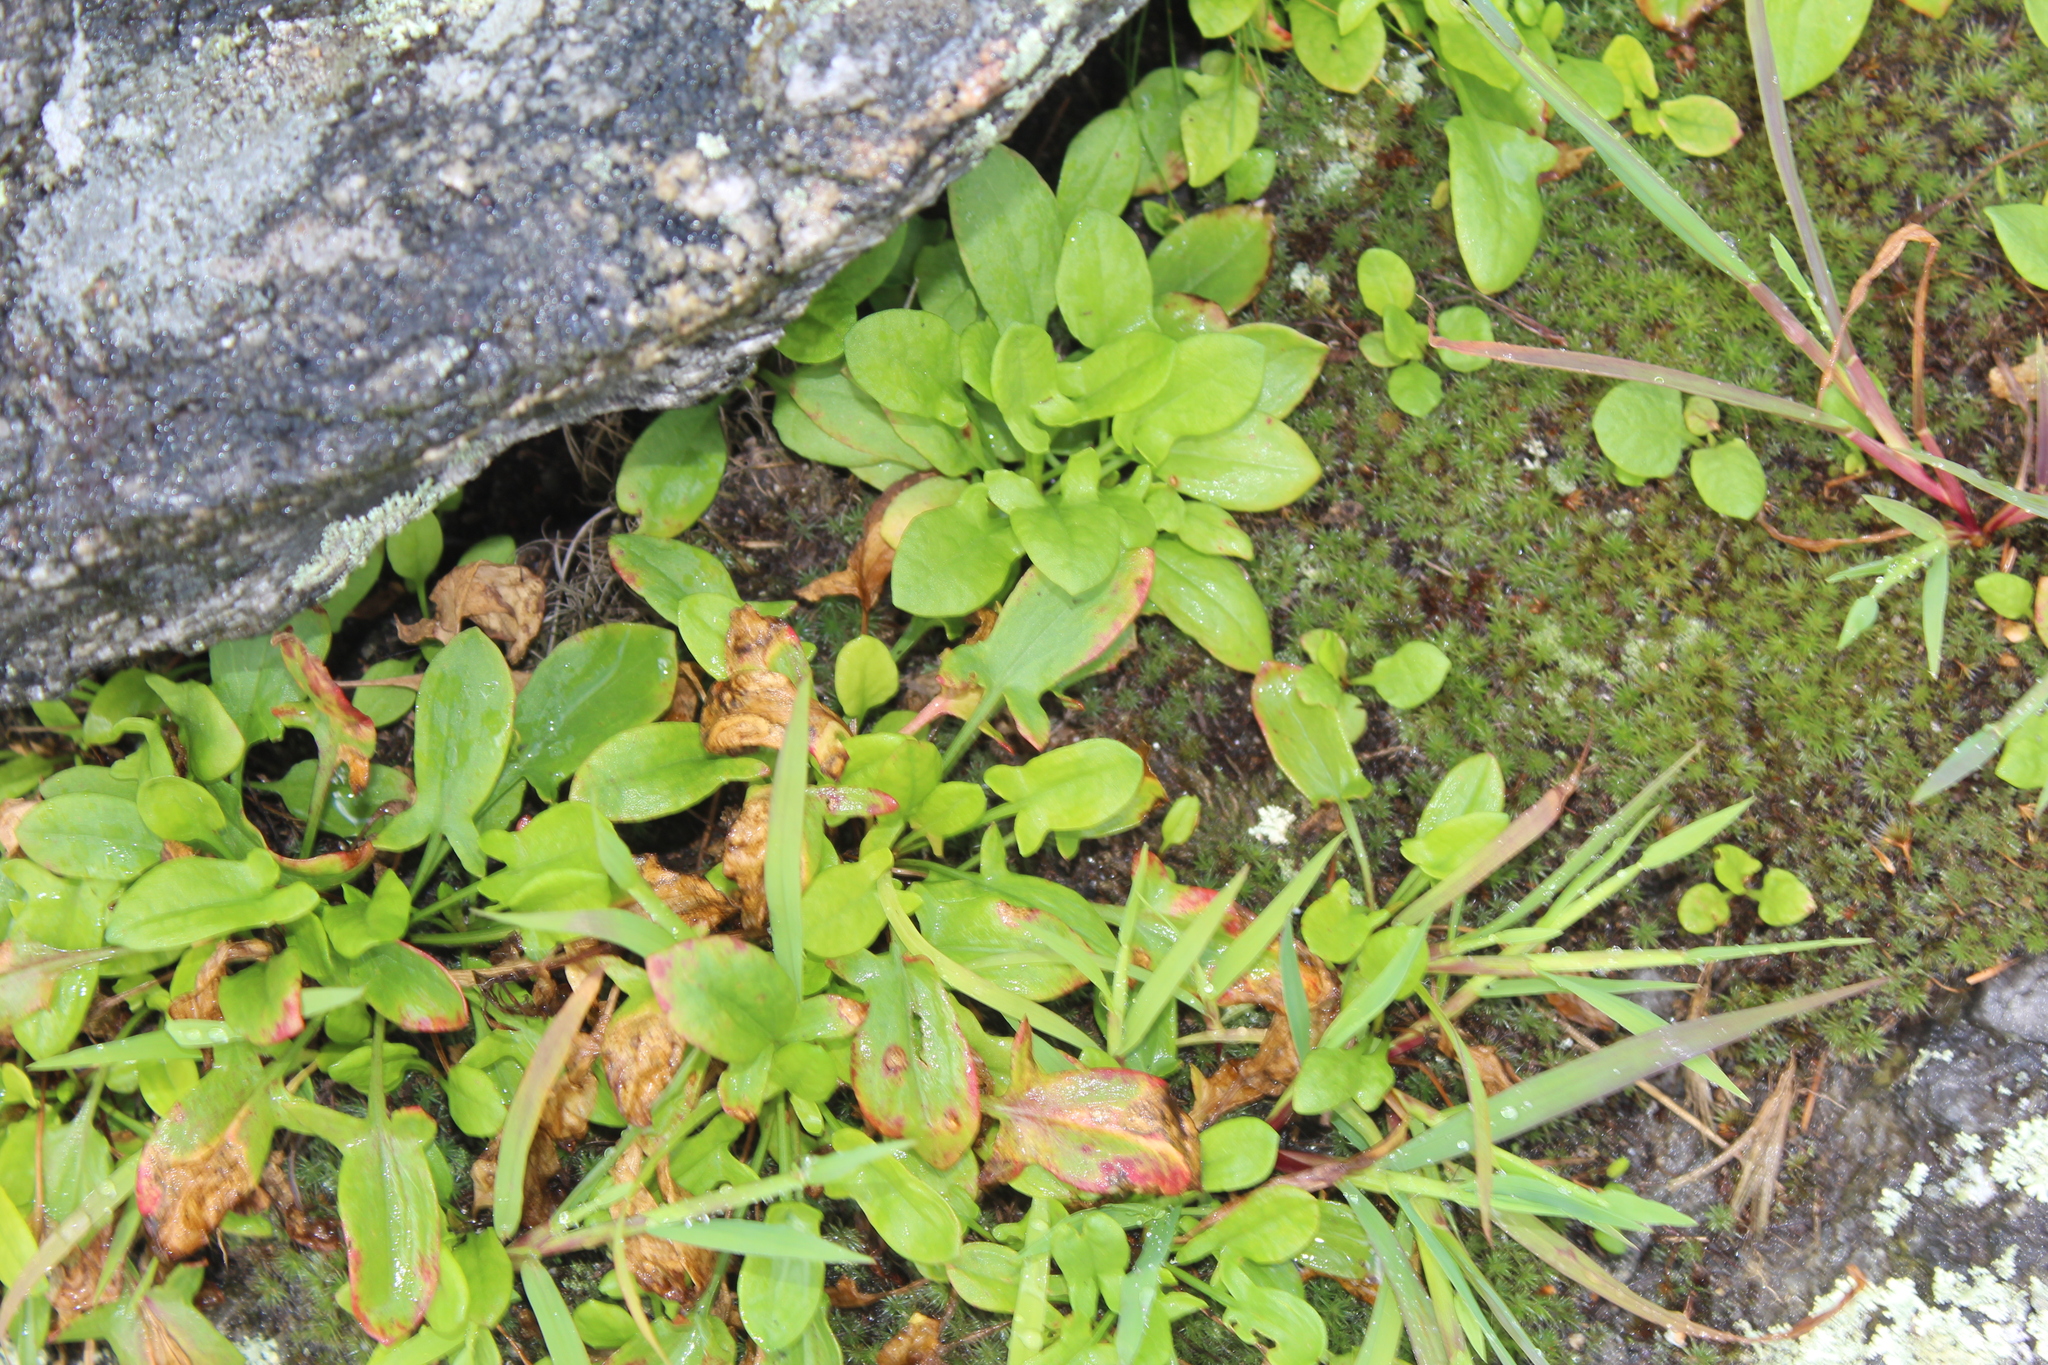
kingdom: Plantae
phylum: Tracheophyta
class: Magnoliopsida
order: Caryophyllales
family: Polygonaceae
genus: Rumex
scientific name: Rumex acetosella
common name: Common sheep sorrel
